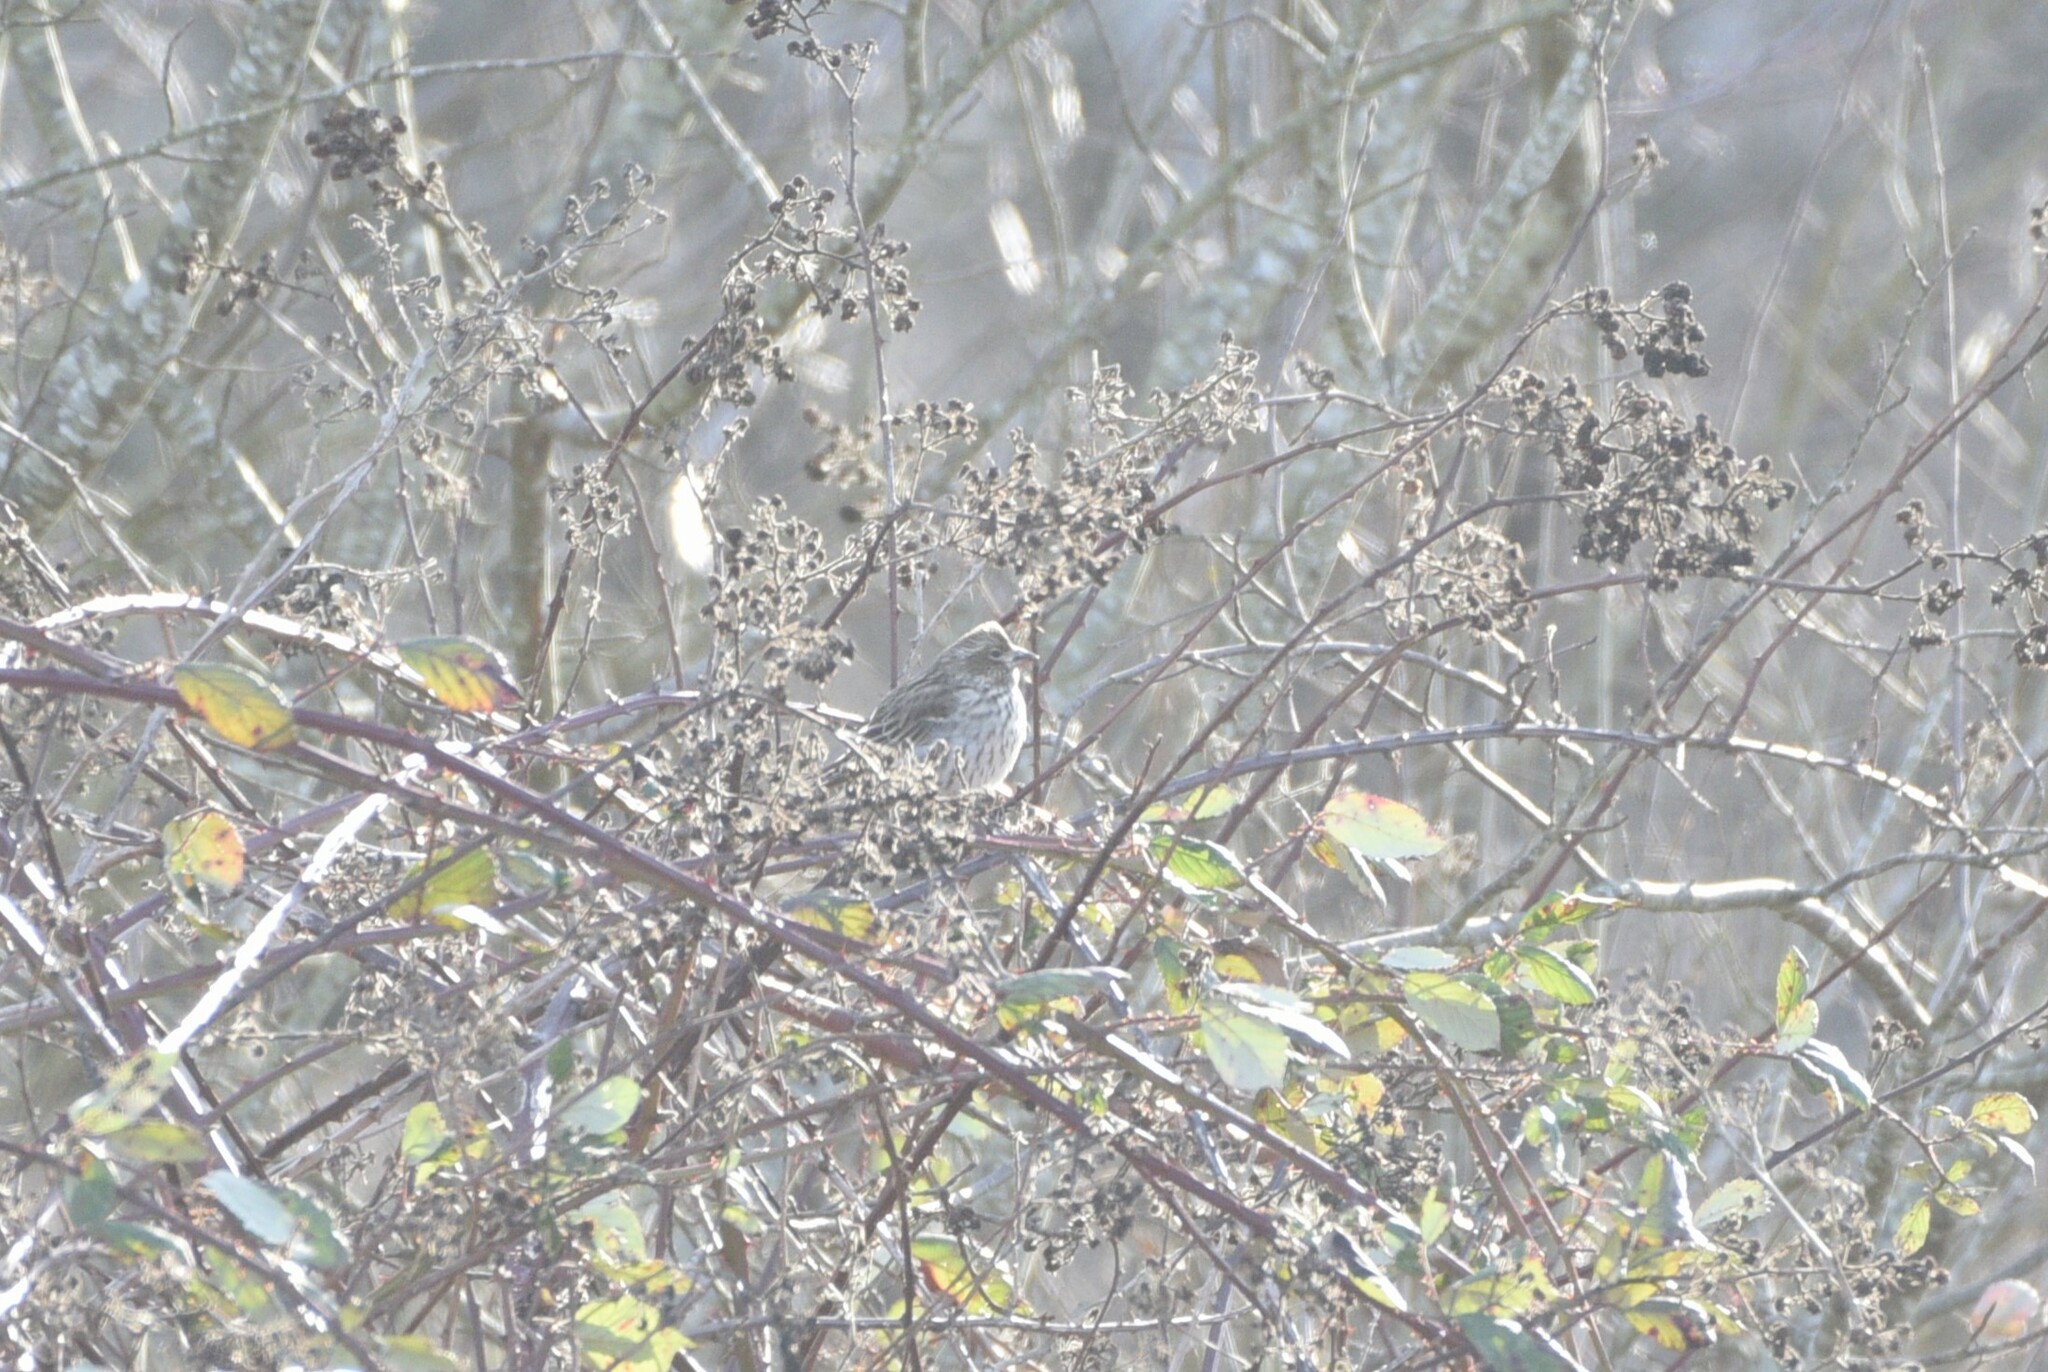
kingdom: Animalia
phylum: Chordata
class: Aves
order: Passeriformes
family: Fringillidae
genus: Haemorhous
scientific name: Haemorhous cassinii
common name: Cassin's finch
